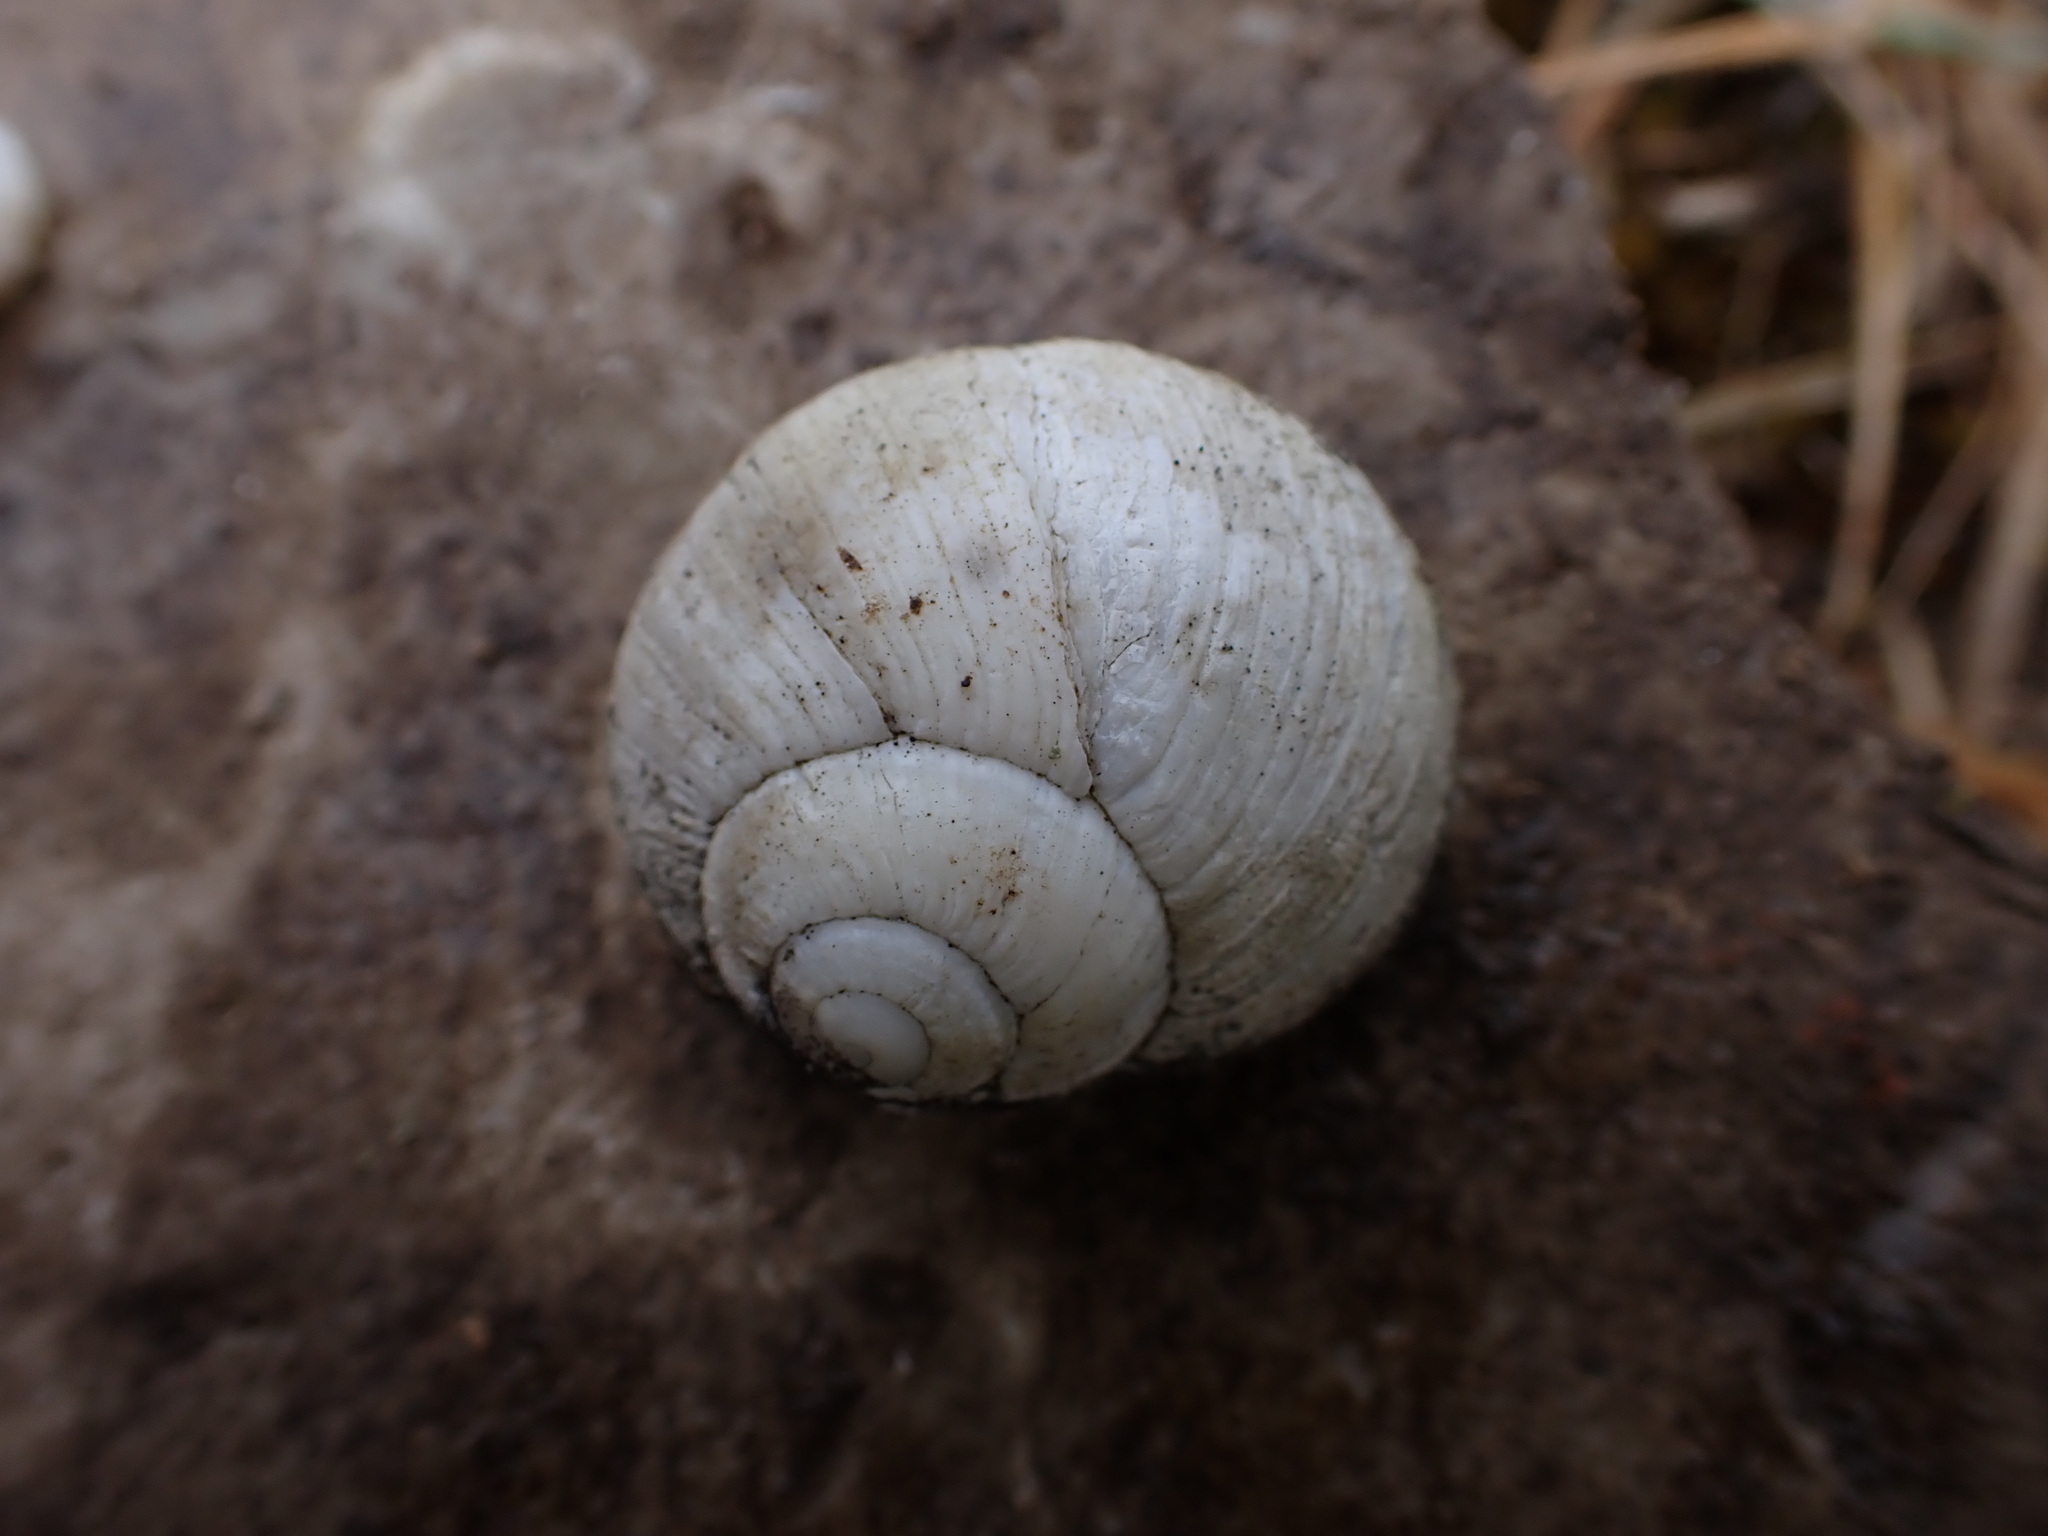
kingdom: Animalia
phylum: Mollusca
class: Gastropoda
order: Stylommatophora
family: Helicidae
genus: Helix
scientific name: Helix melanostoma
